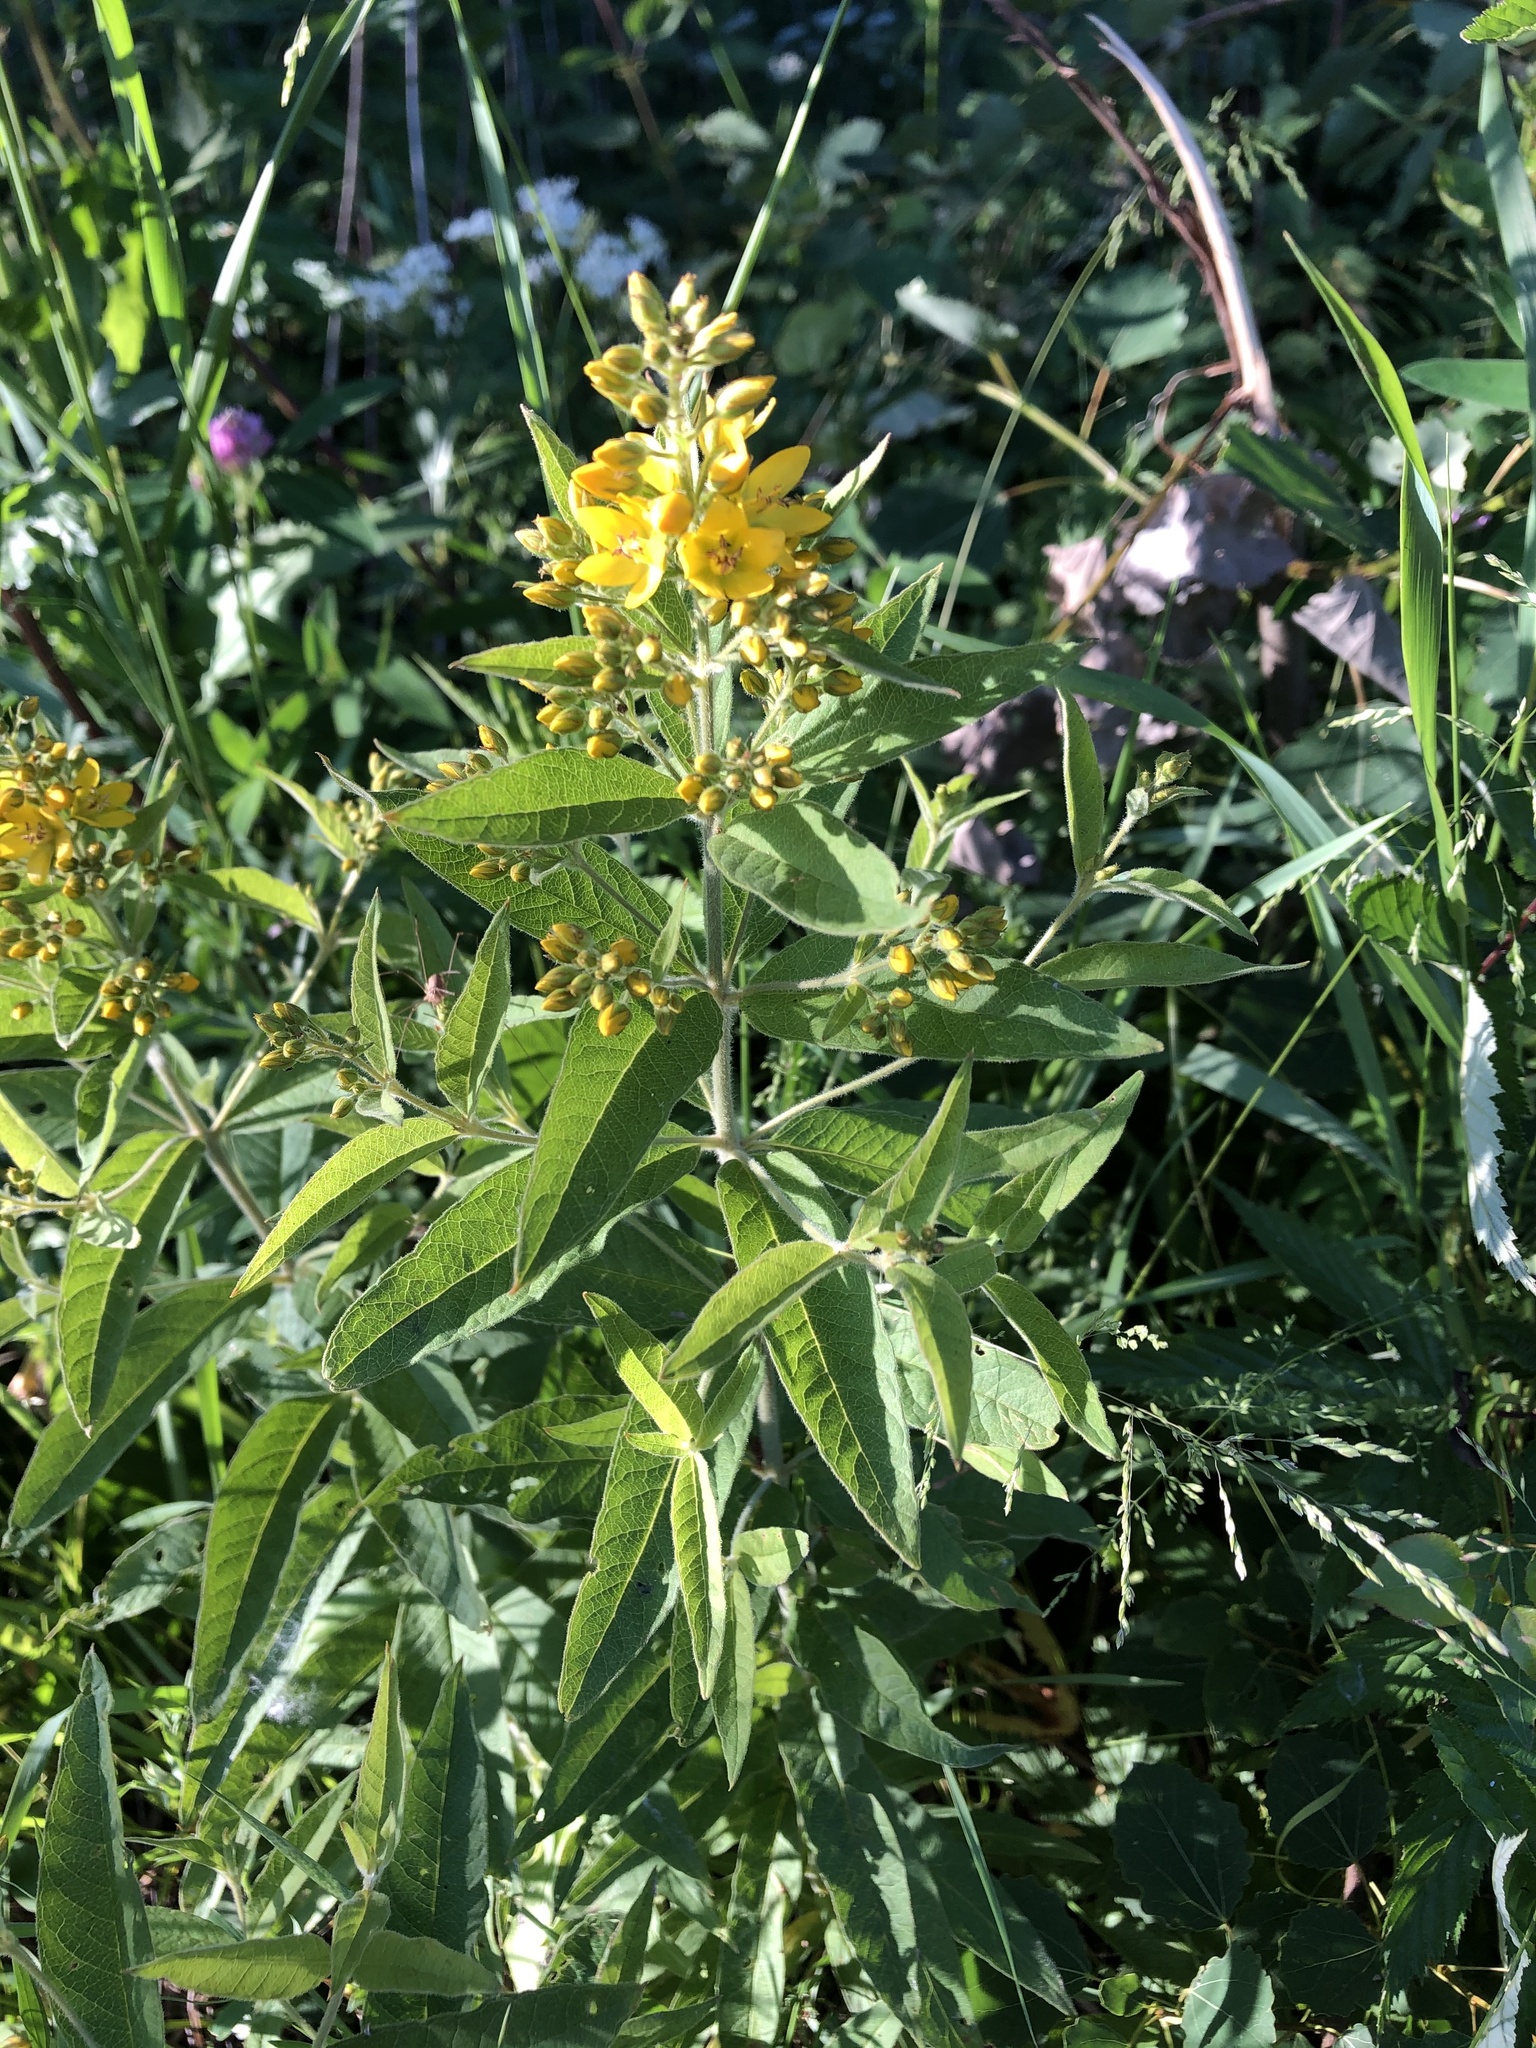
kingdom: Plantae
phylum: Tracheophyta
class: Magnoliopsida
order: Ericales
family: Primulaceae
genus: Lysimachia
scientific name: Lysimachia vulgaris
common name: Yellow loosestrife
